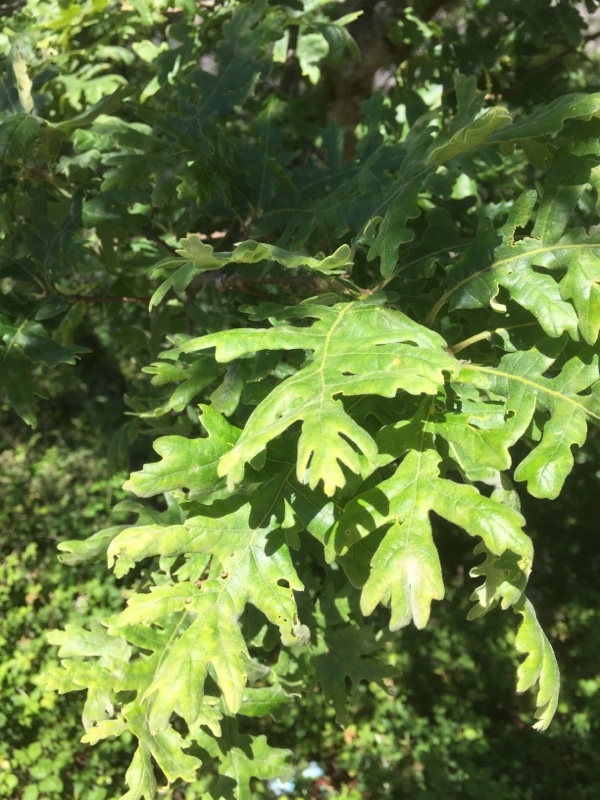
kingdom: Plantae
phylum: Tracheophyta
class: Magnoliopsida
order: Fagales
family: Fagaceae
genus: Quercus
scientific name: Quercus pyrenaica
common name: Pyrenean oak
